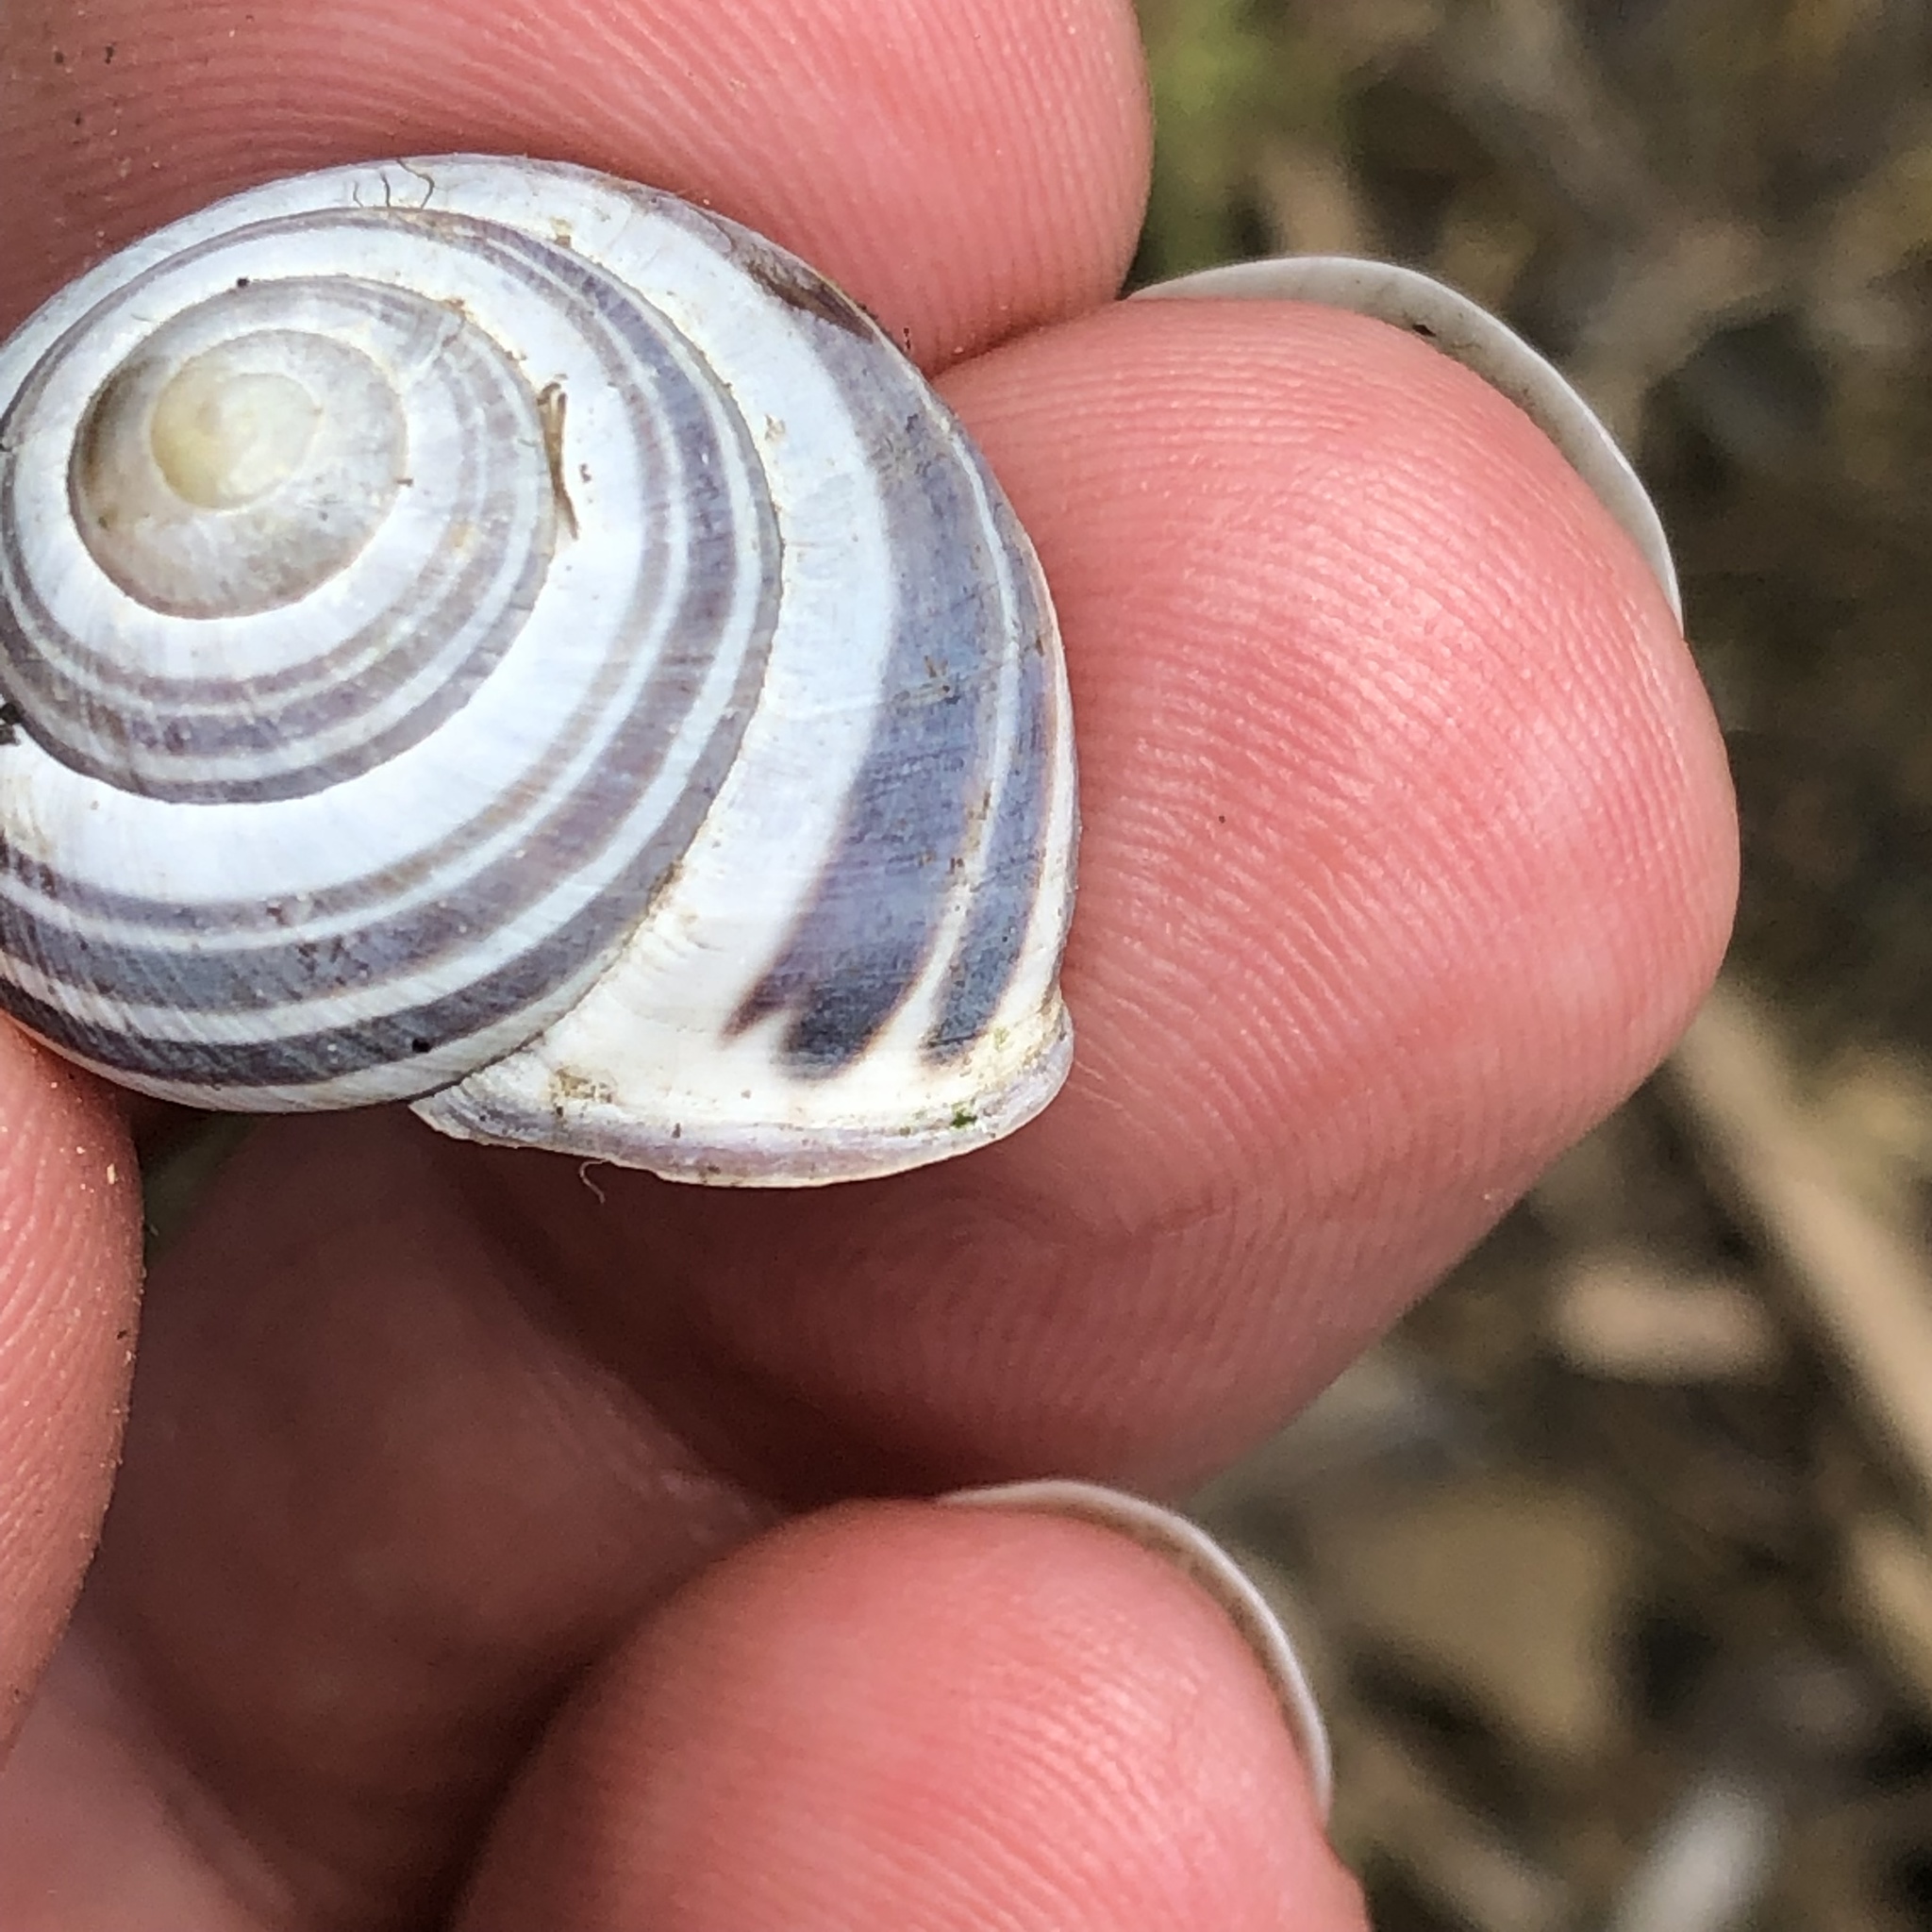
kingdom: Animalia
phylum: Mollusca
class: Gastropoda
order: Stylommatophora
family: Helicidae
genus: Cepaea
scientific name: Cepaea nemoralis
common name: Grovesnail
